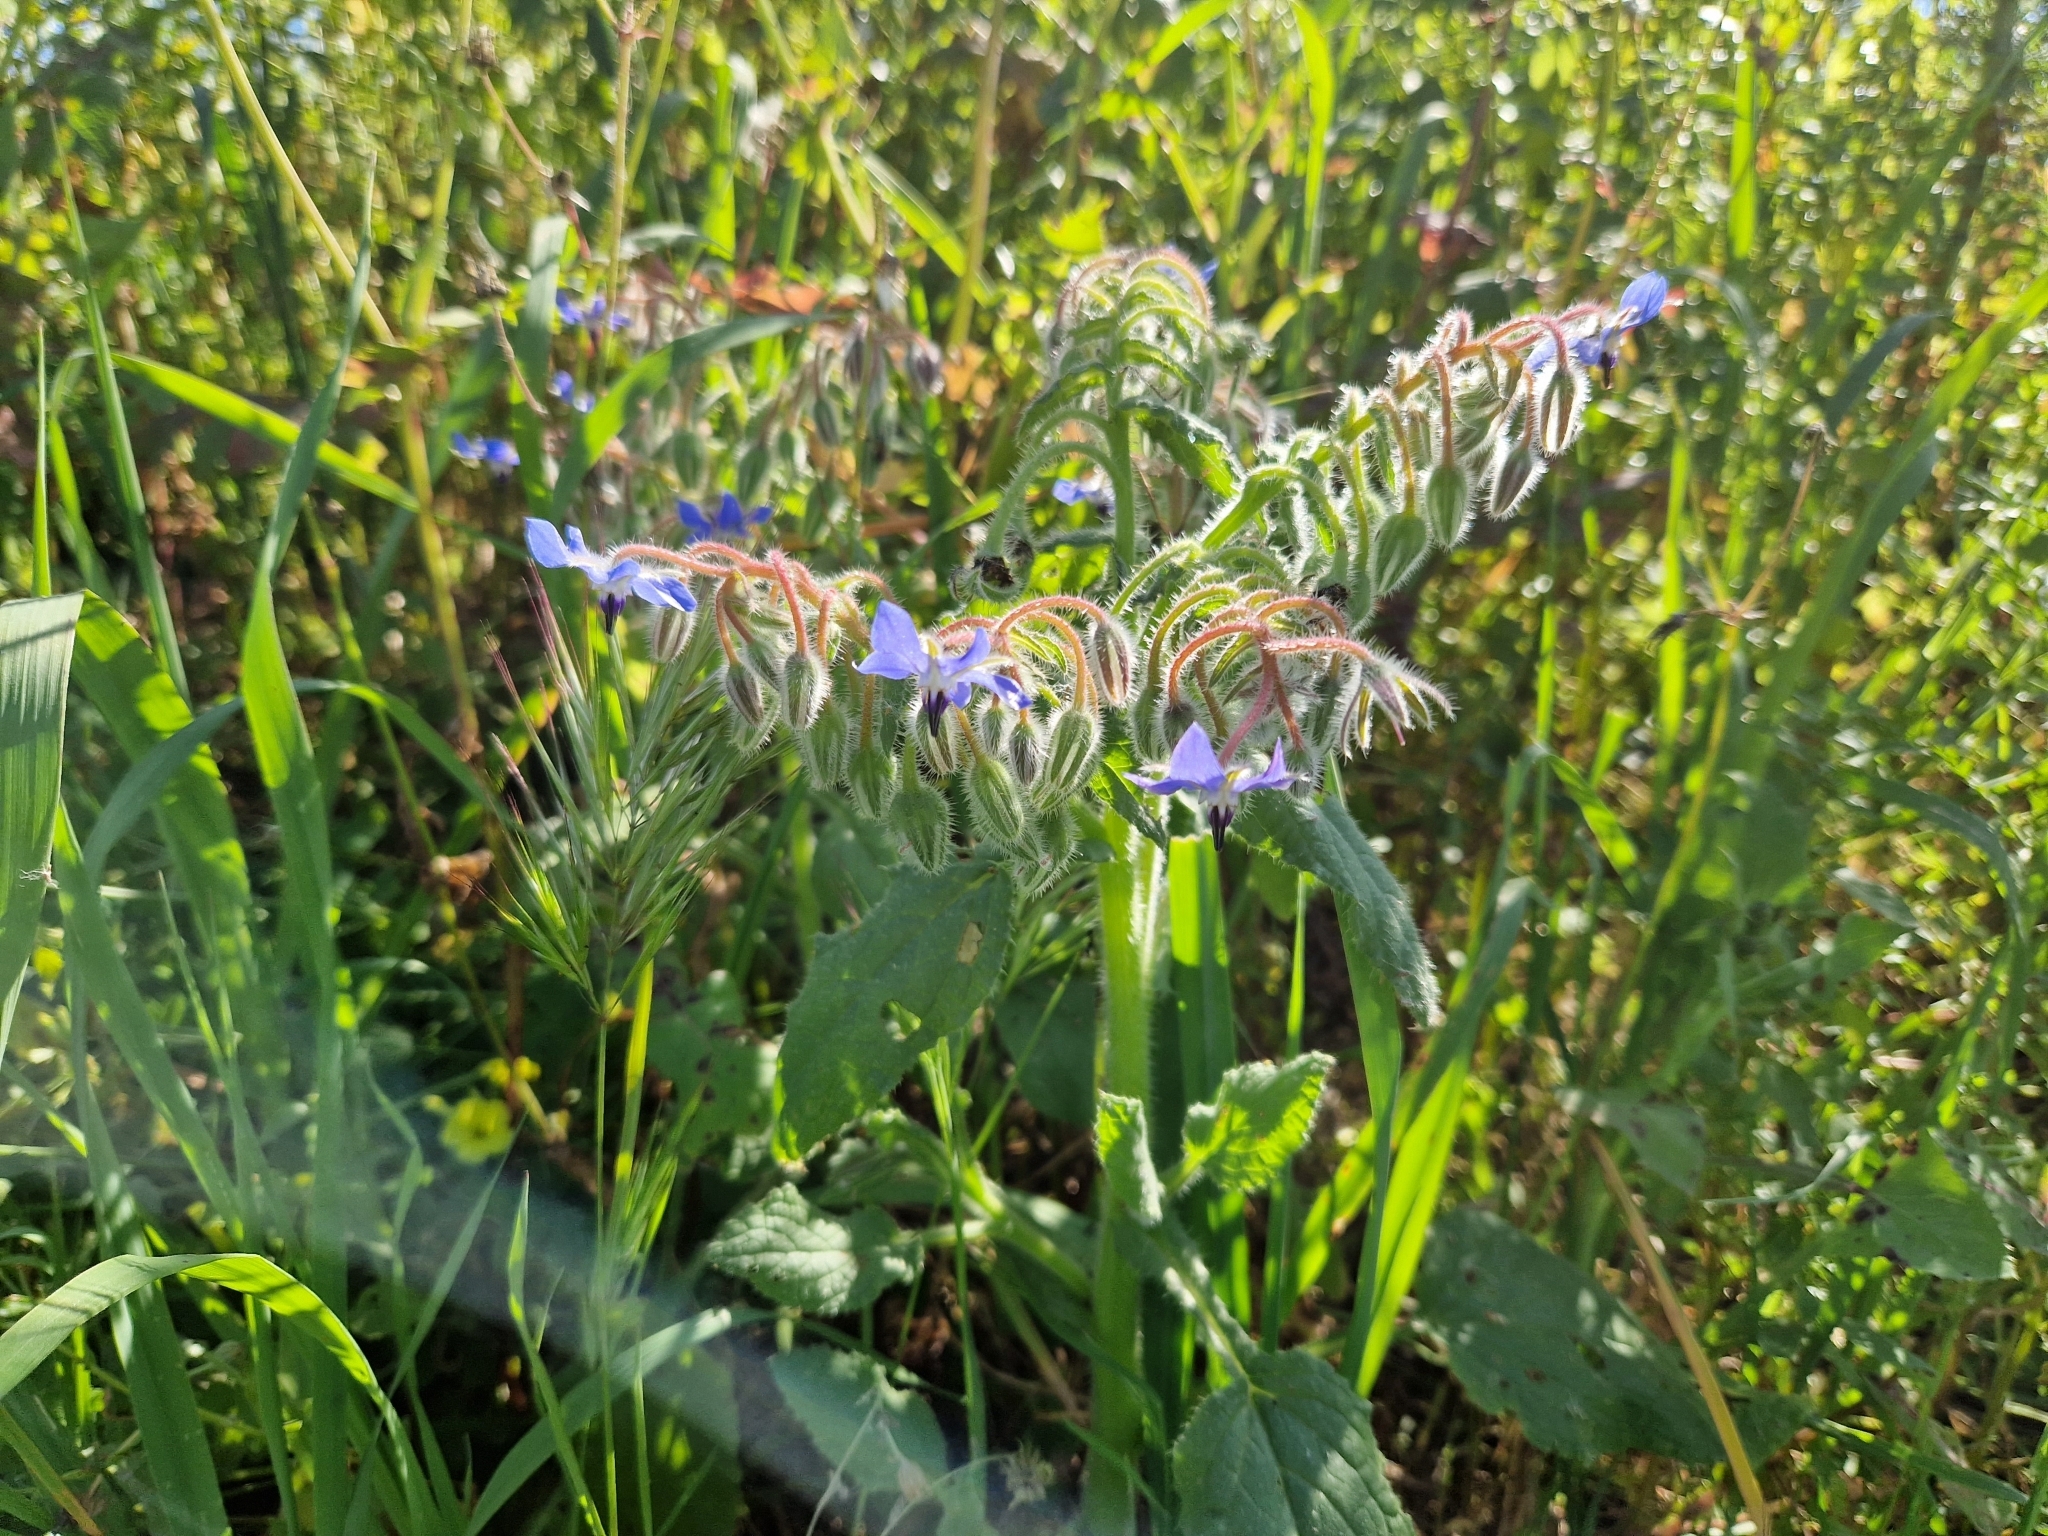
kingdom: Plantae
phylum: Tracheophyta
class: Magnoliopsida
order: Boraginales
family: Boraginaceae
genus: Borago
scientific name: Borago officinalis
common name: Borage
